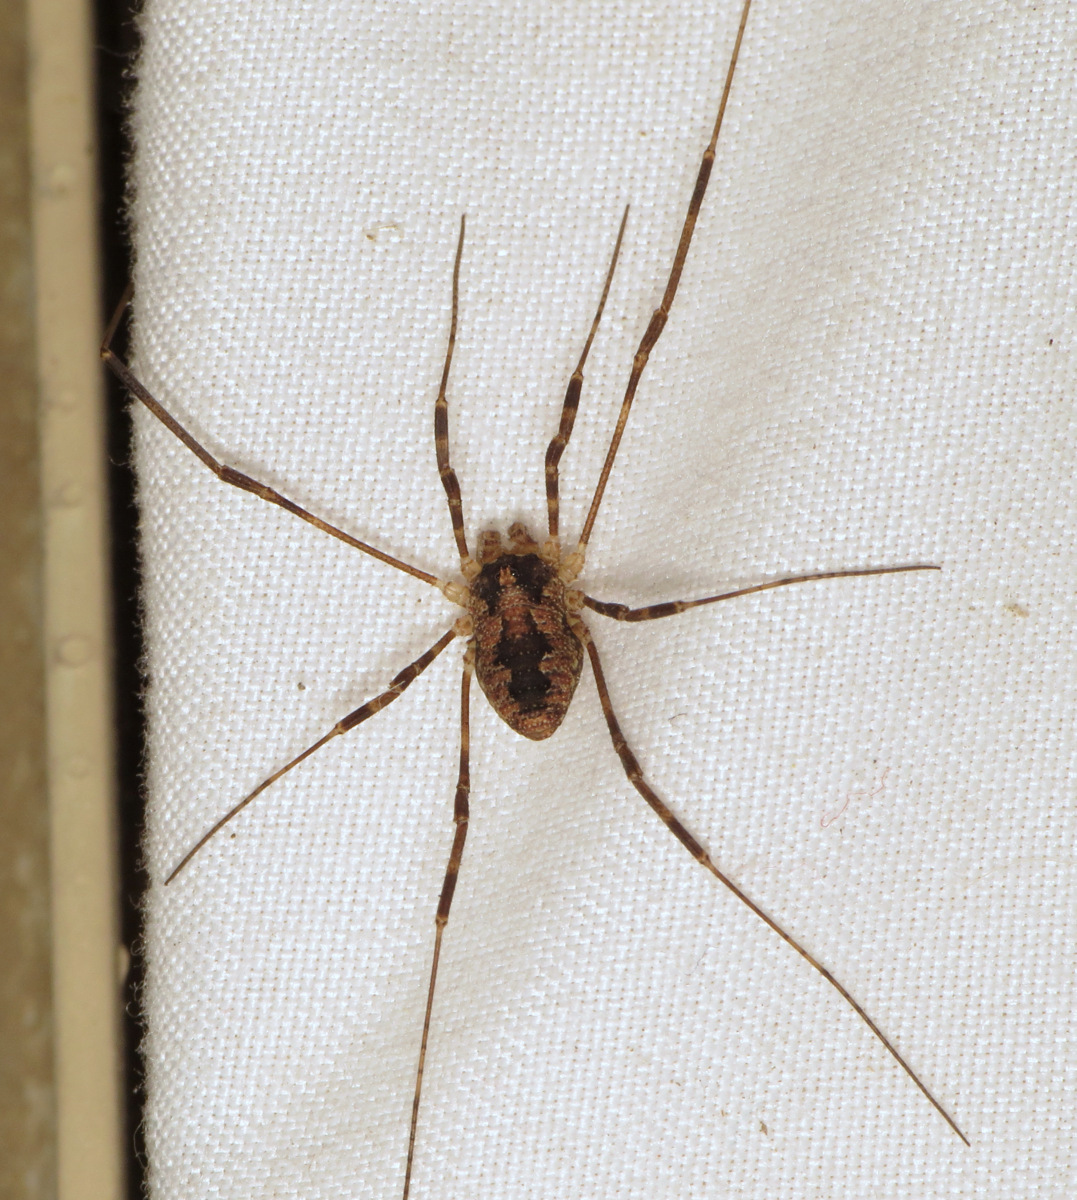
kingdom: Animalia
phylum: Arthropoda
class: Arachnida
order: Opiliones
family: Phalangiidae
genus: Odiellus
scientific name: Odiellus pictus
